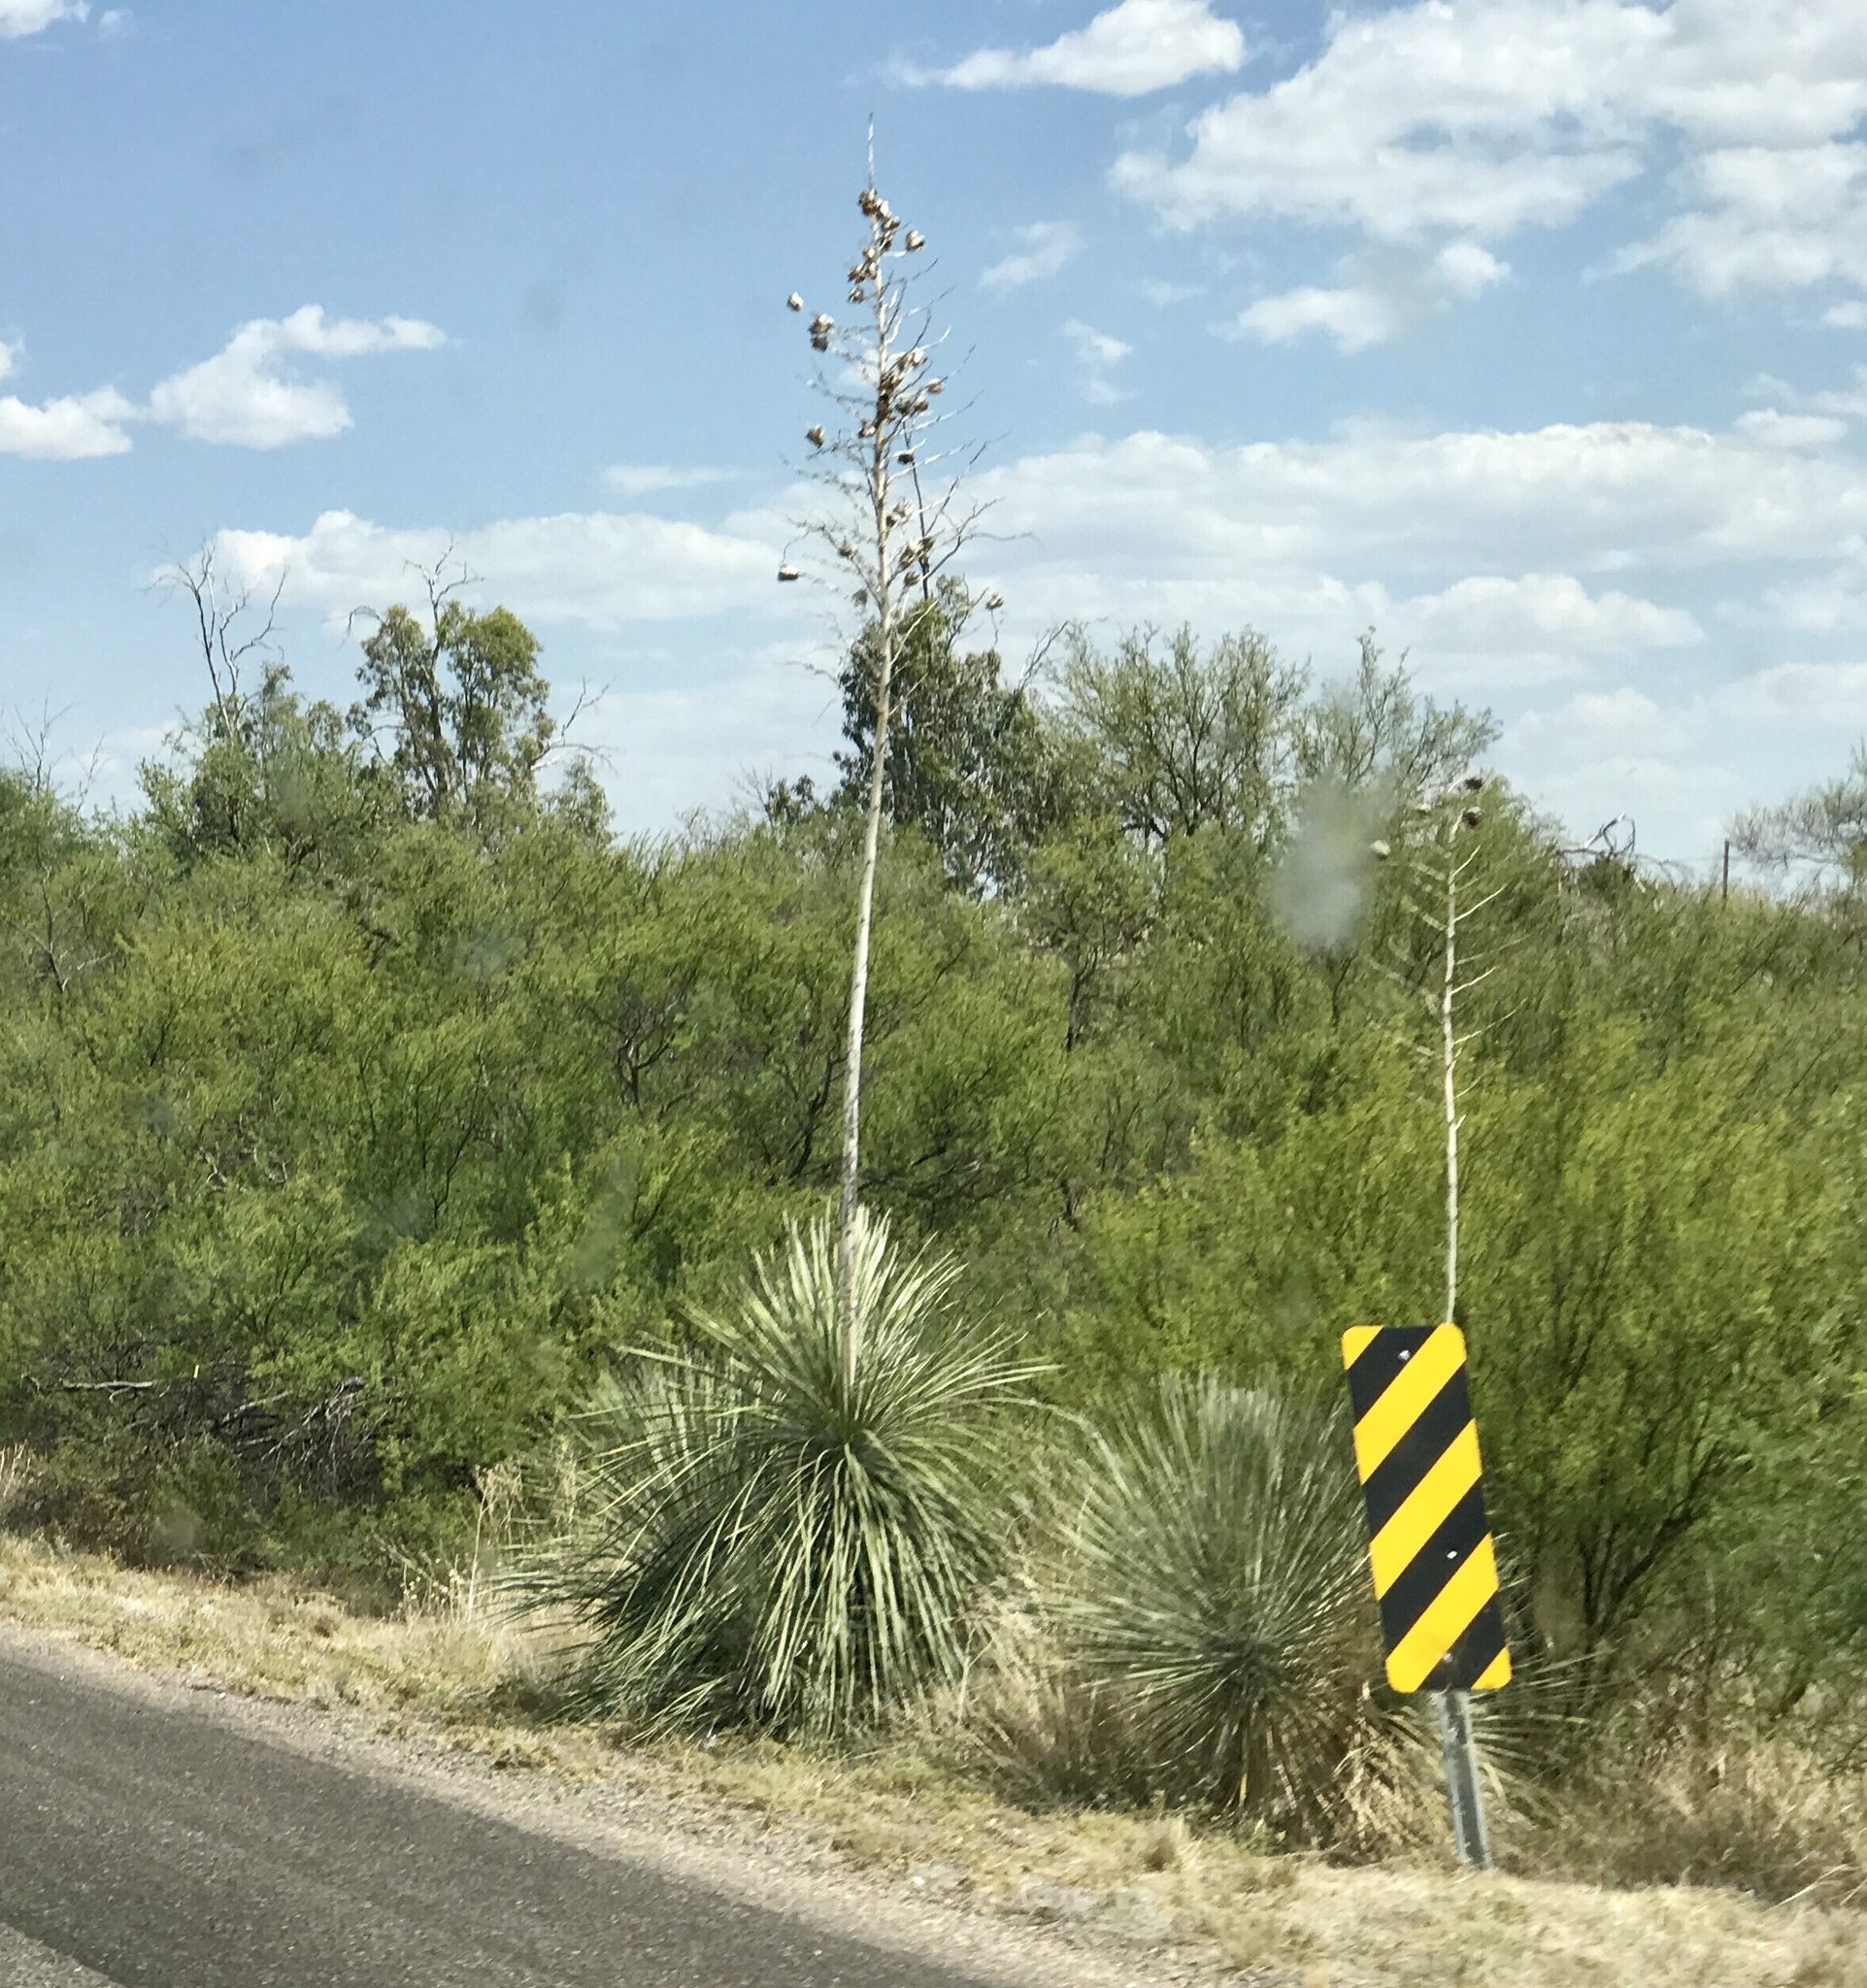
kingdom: Plantae
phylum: Tracheophyta
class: Liliopsida
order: Asparagales
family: Asparagaceae
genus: Yucca
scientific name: Yucca elata
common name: Palmella
